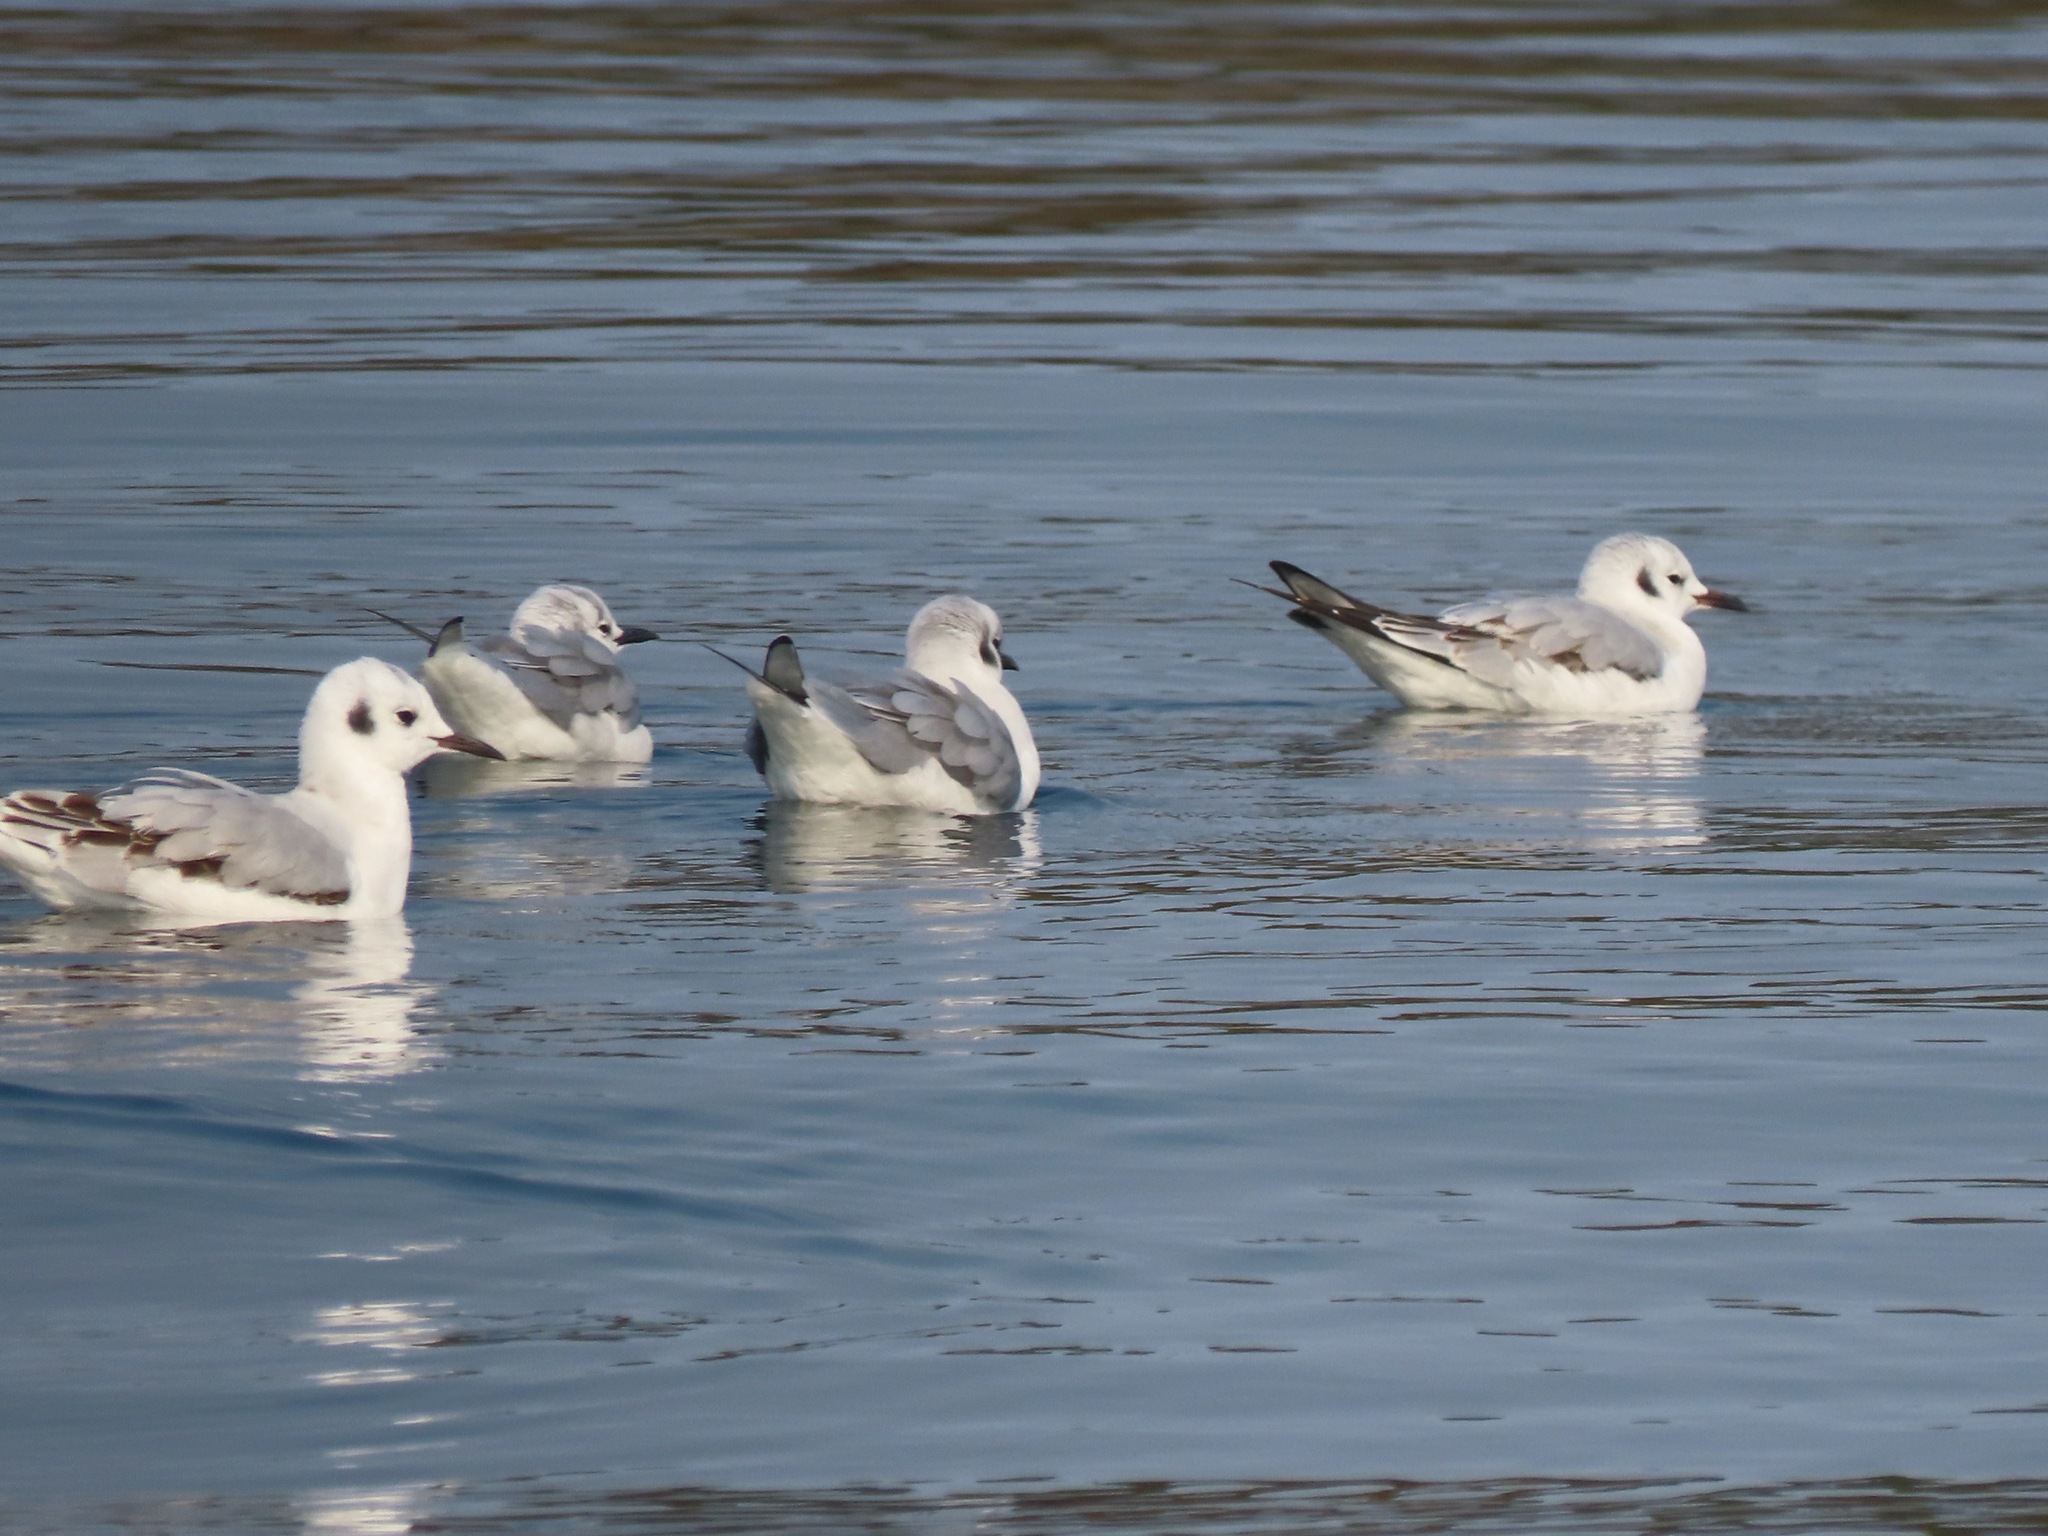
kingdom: Animalia
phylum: Chordata
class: Aves
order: Charadriiformes
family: Laridae
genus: Chroicocephalus
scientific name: Chroicocephalus philadelphia
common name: Bonaparte's gull
